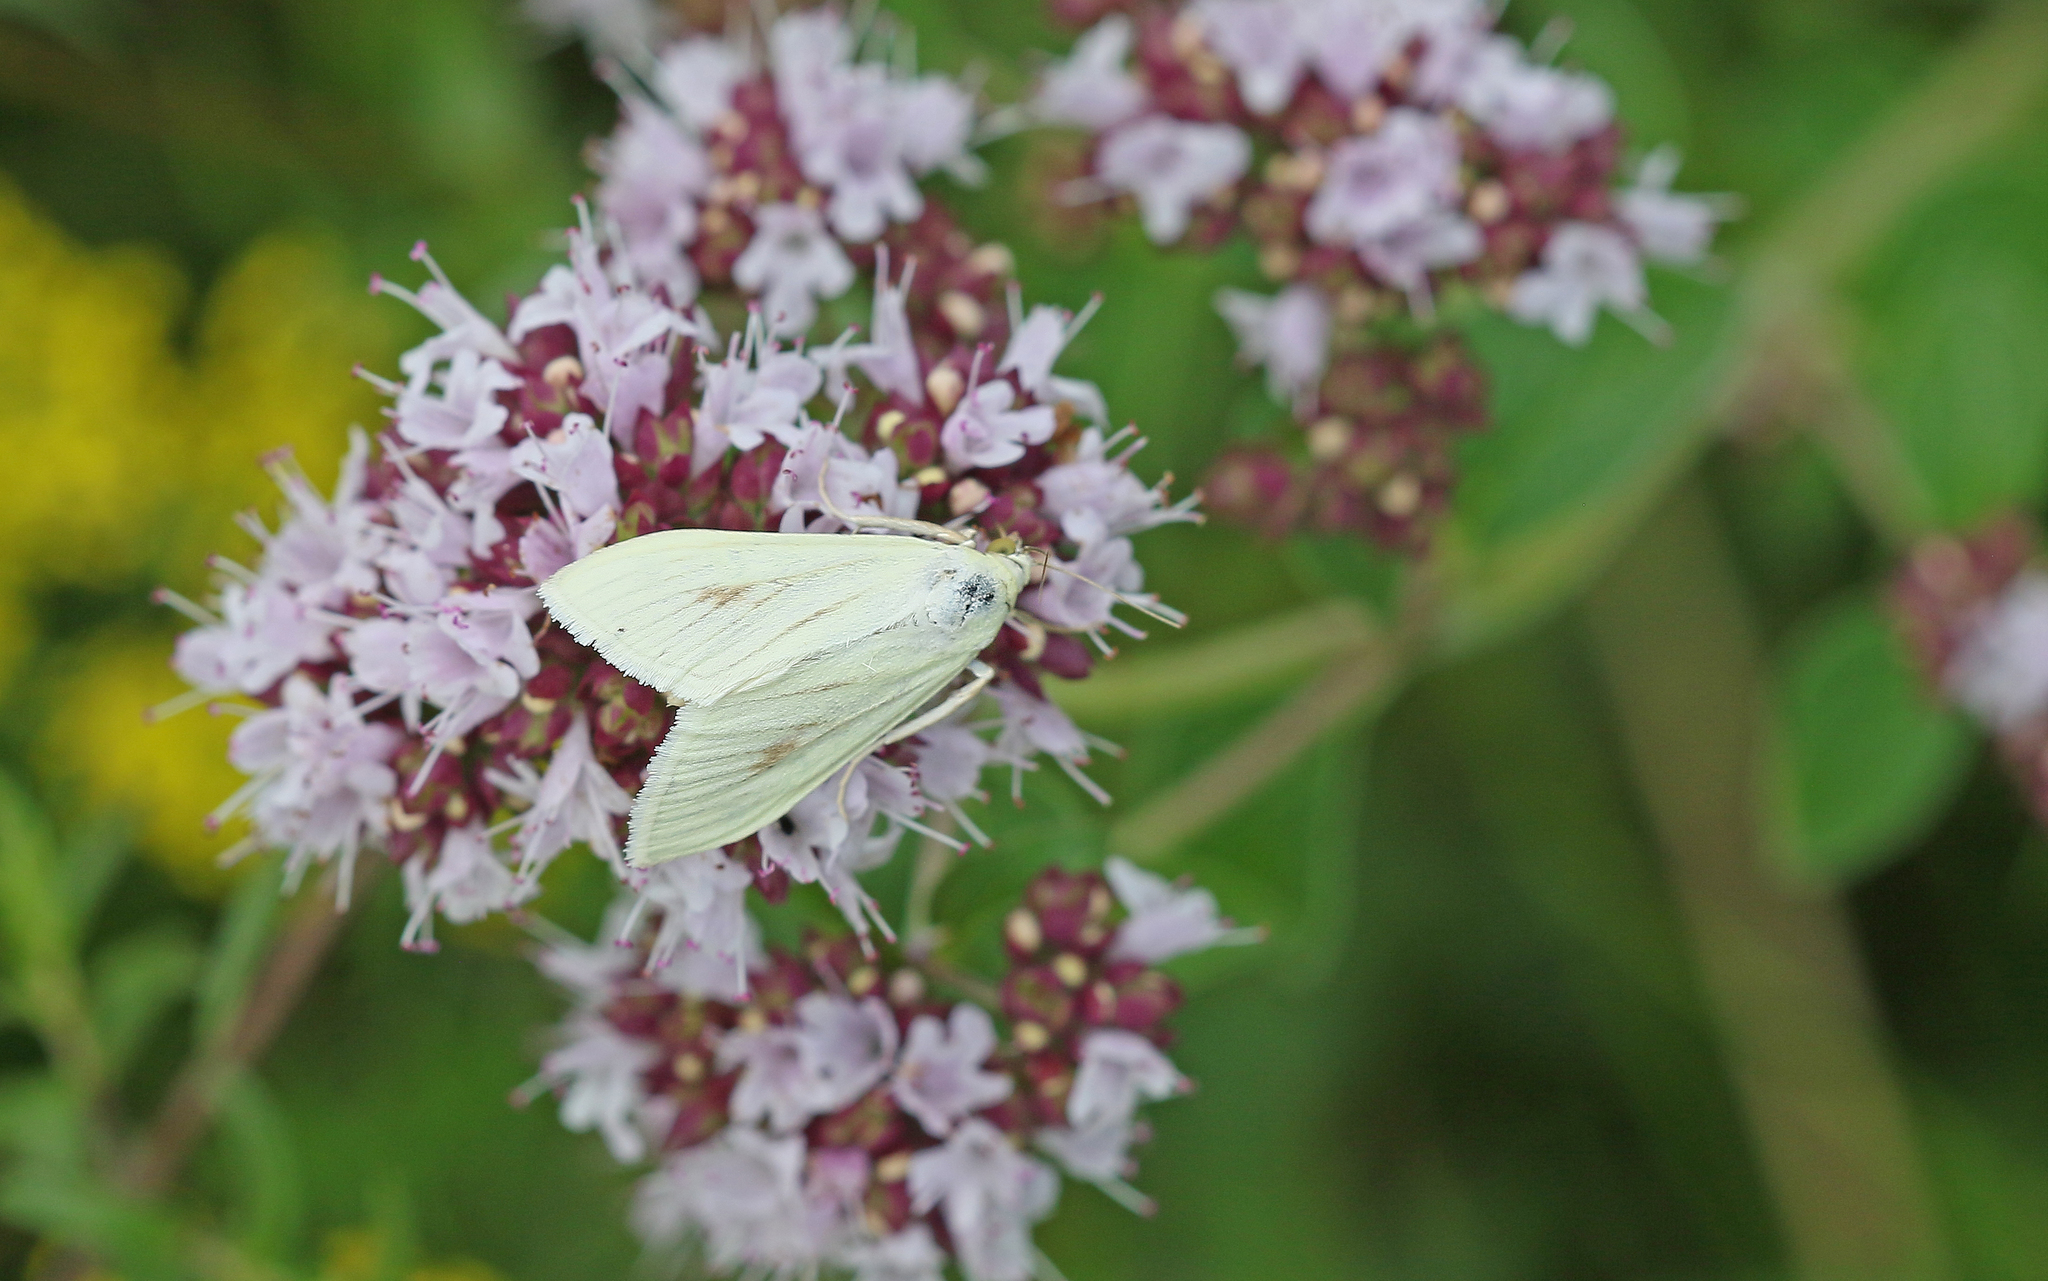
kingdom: Animalia
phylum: Arthropoda
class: Insecta
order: Lepidoptera
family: Crambidae
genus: Sitochroa
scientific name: Sitochroa palealis
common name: Greenish-yellow sitochroa moth
